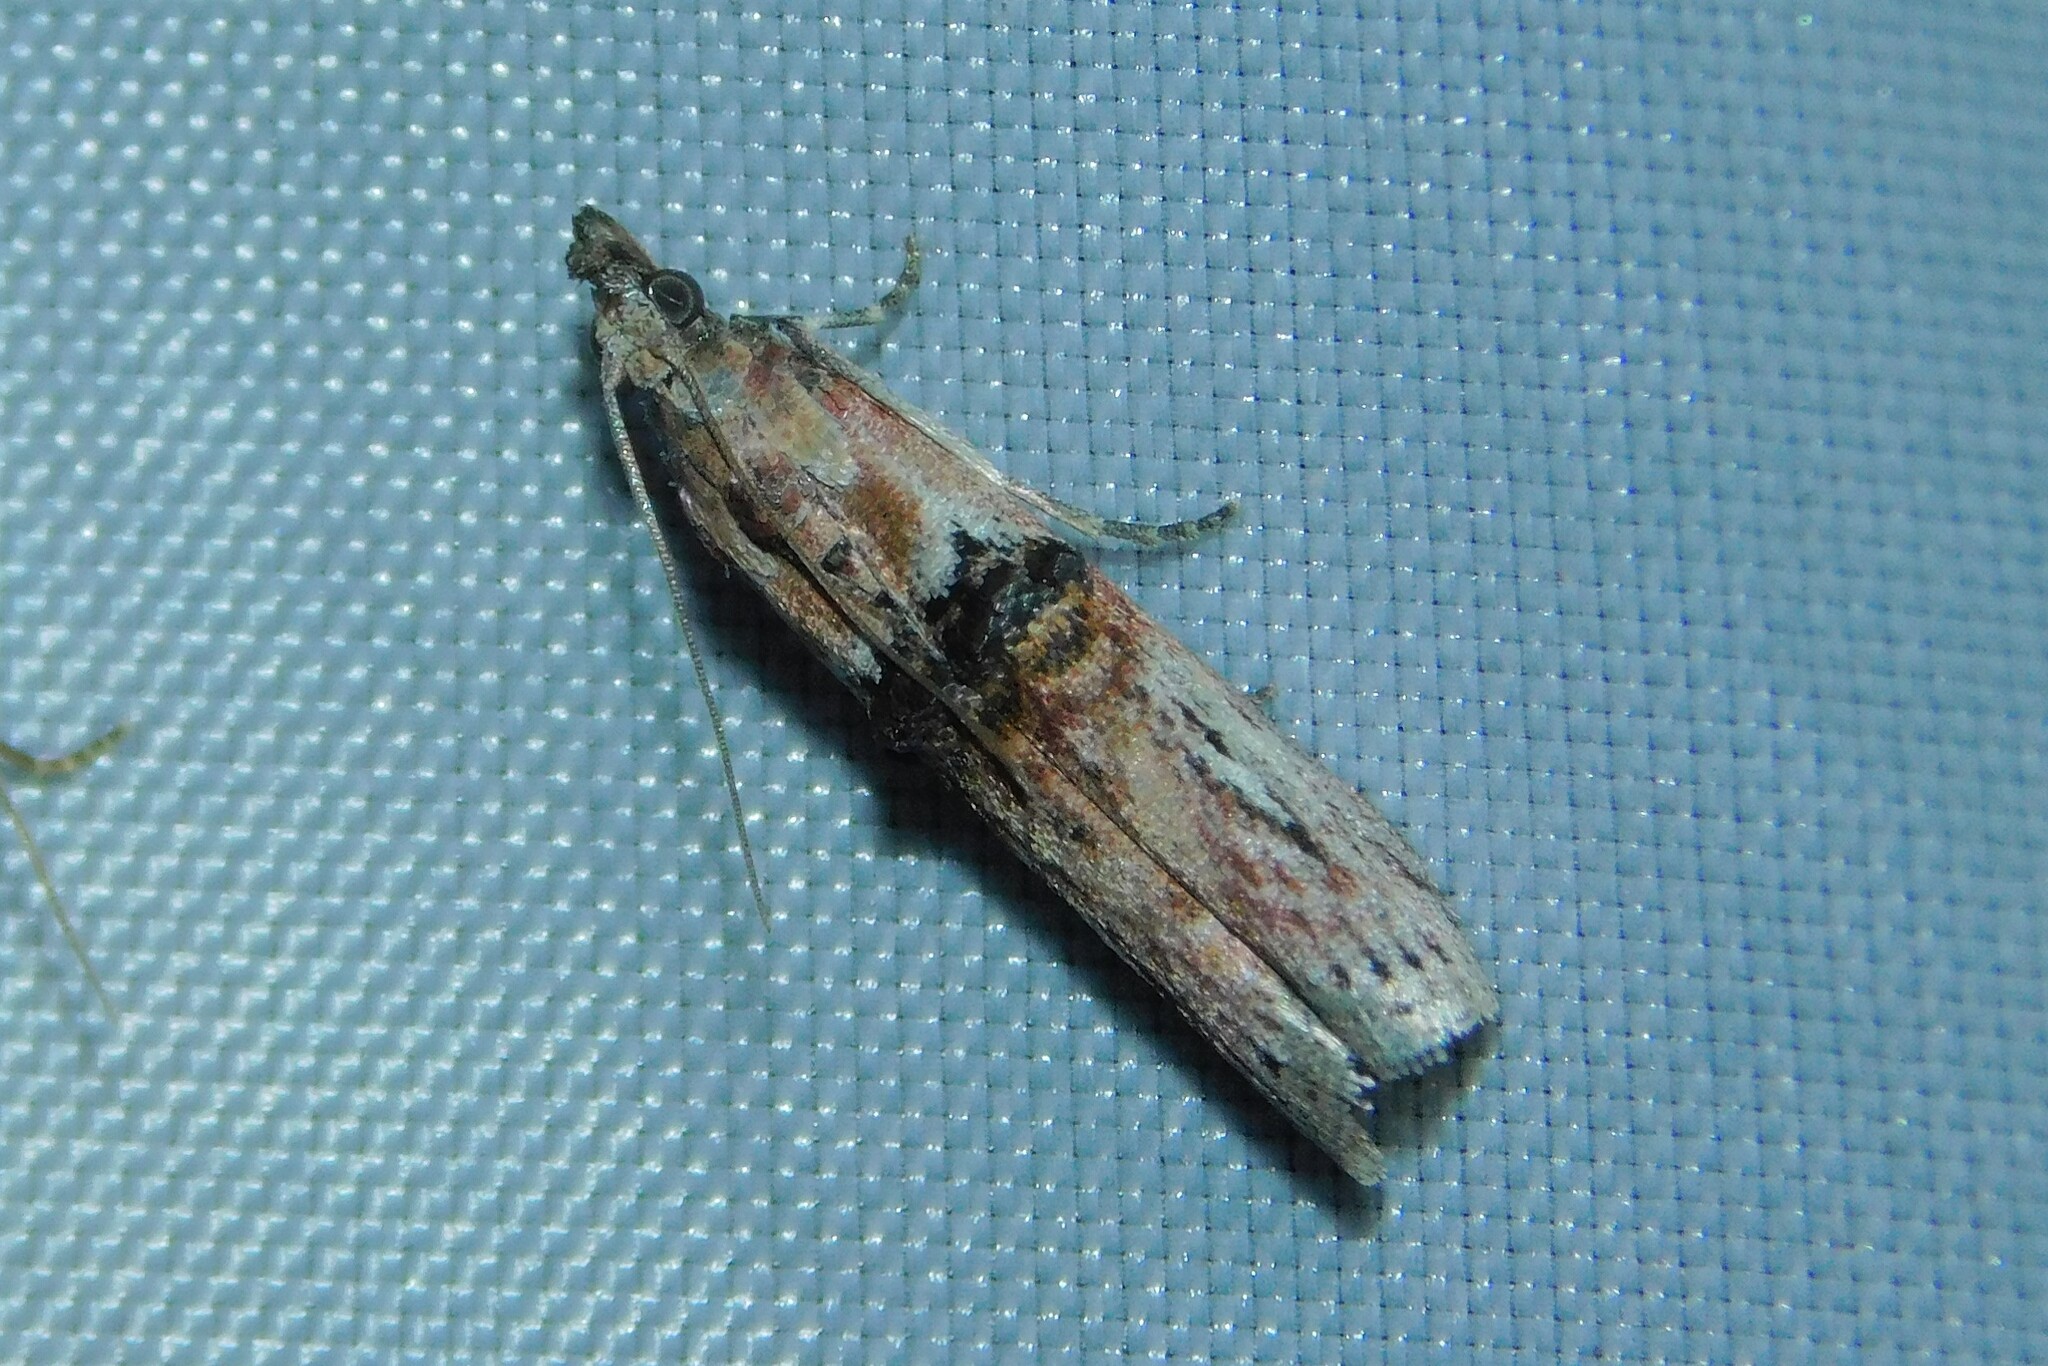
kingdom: Animalia
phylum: Arthropoda
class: Insecta
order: Lepidoptera
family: Pyralidae
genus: Nephopterix
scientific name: Nephopterix angustella
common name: Spindle knot-horn
